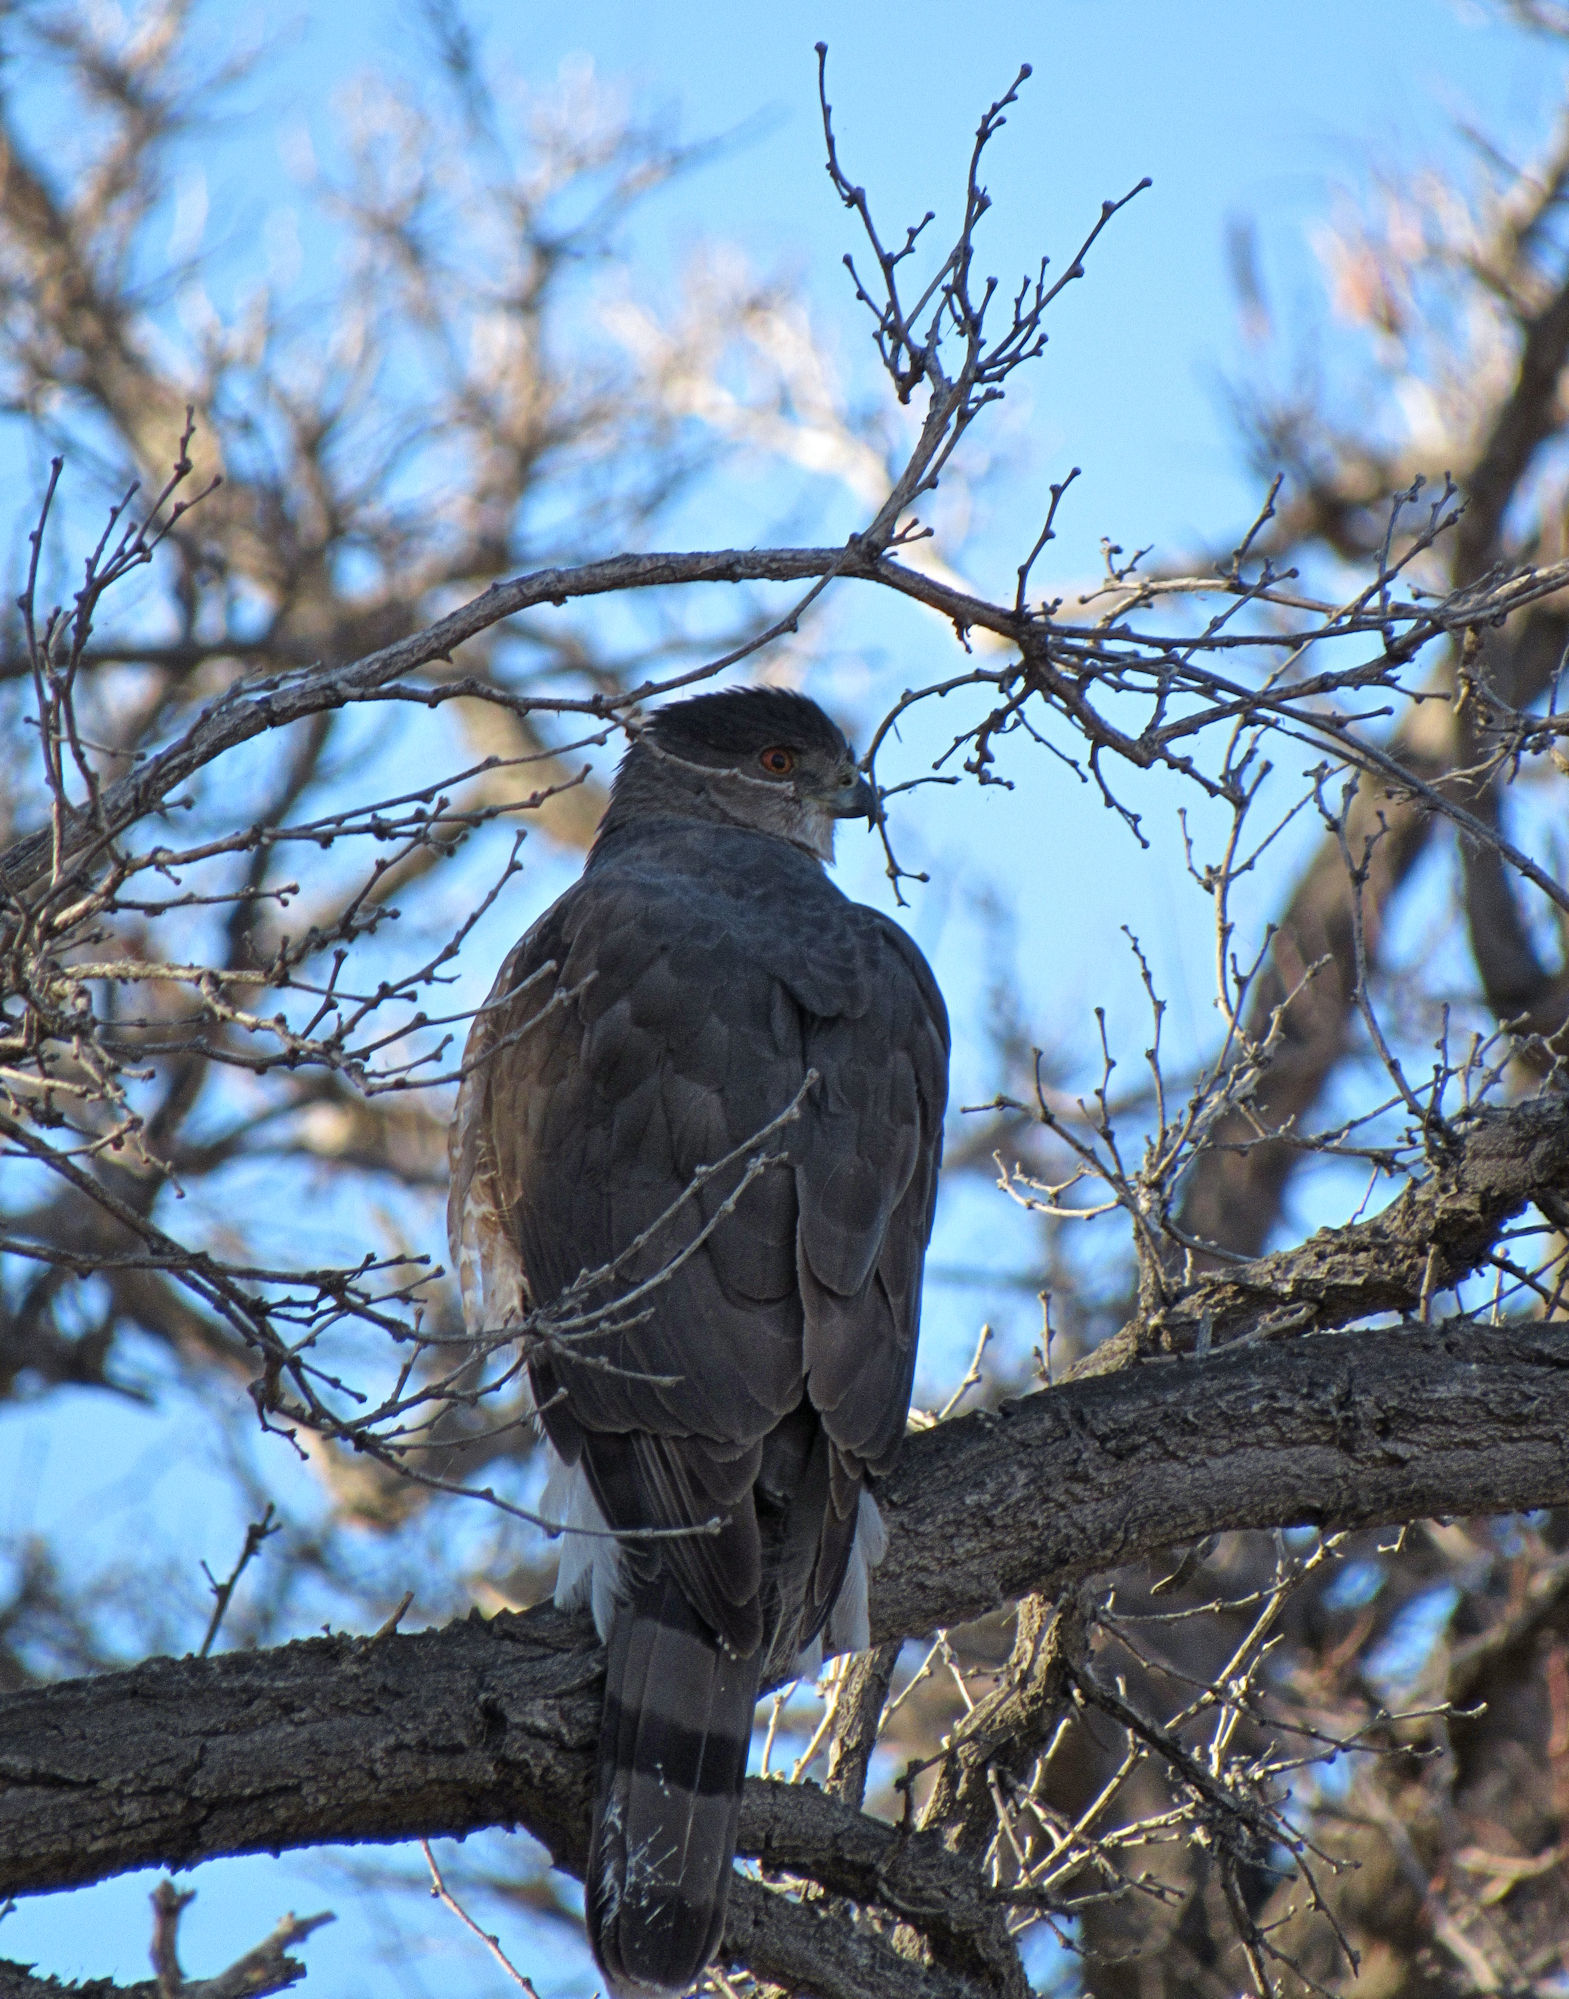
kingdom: Animalia
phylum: Chordata
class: Aves
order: Accipitriformes
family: Accipitridae
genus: Accipiter
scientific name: Accipiter cooperii
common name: Cooper's hawk
